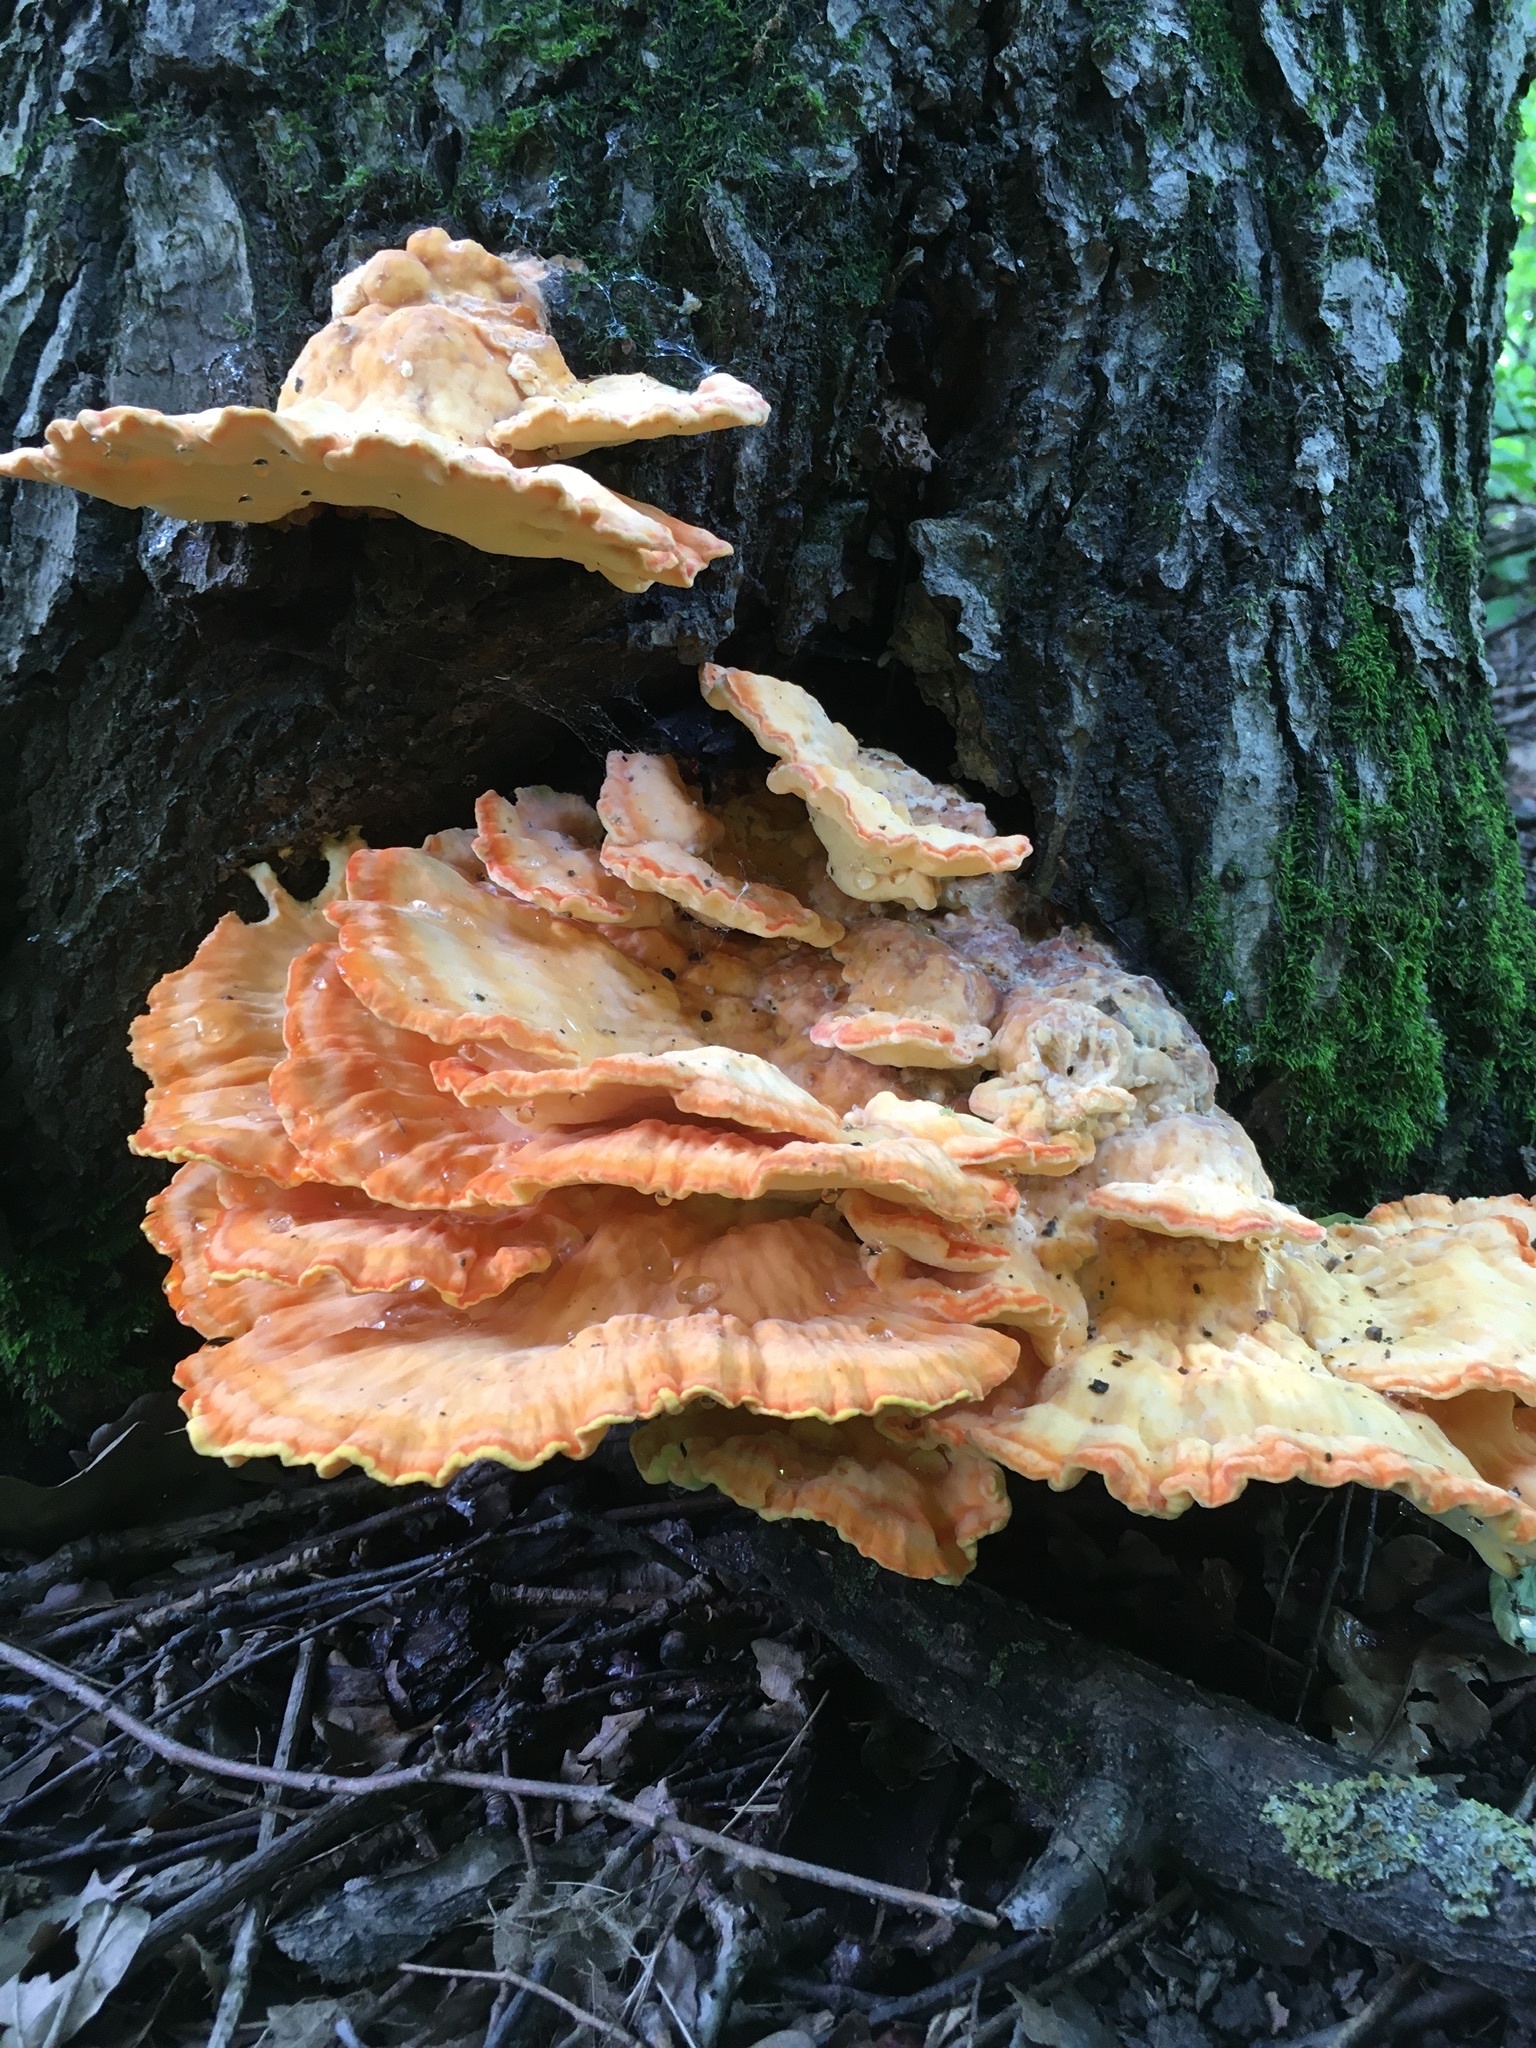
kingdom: Fungi
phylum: Basidiomycota
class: Agaricomycetes
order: Polyporales
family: Laetiporaceae
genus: Laetiporus
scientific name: Laetiporus sulphureus
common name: Chicken of the woods
